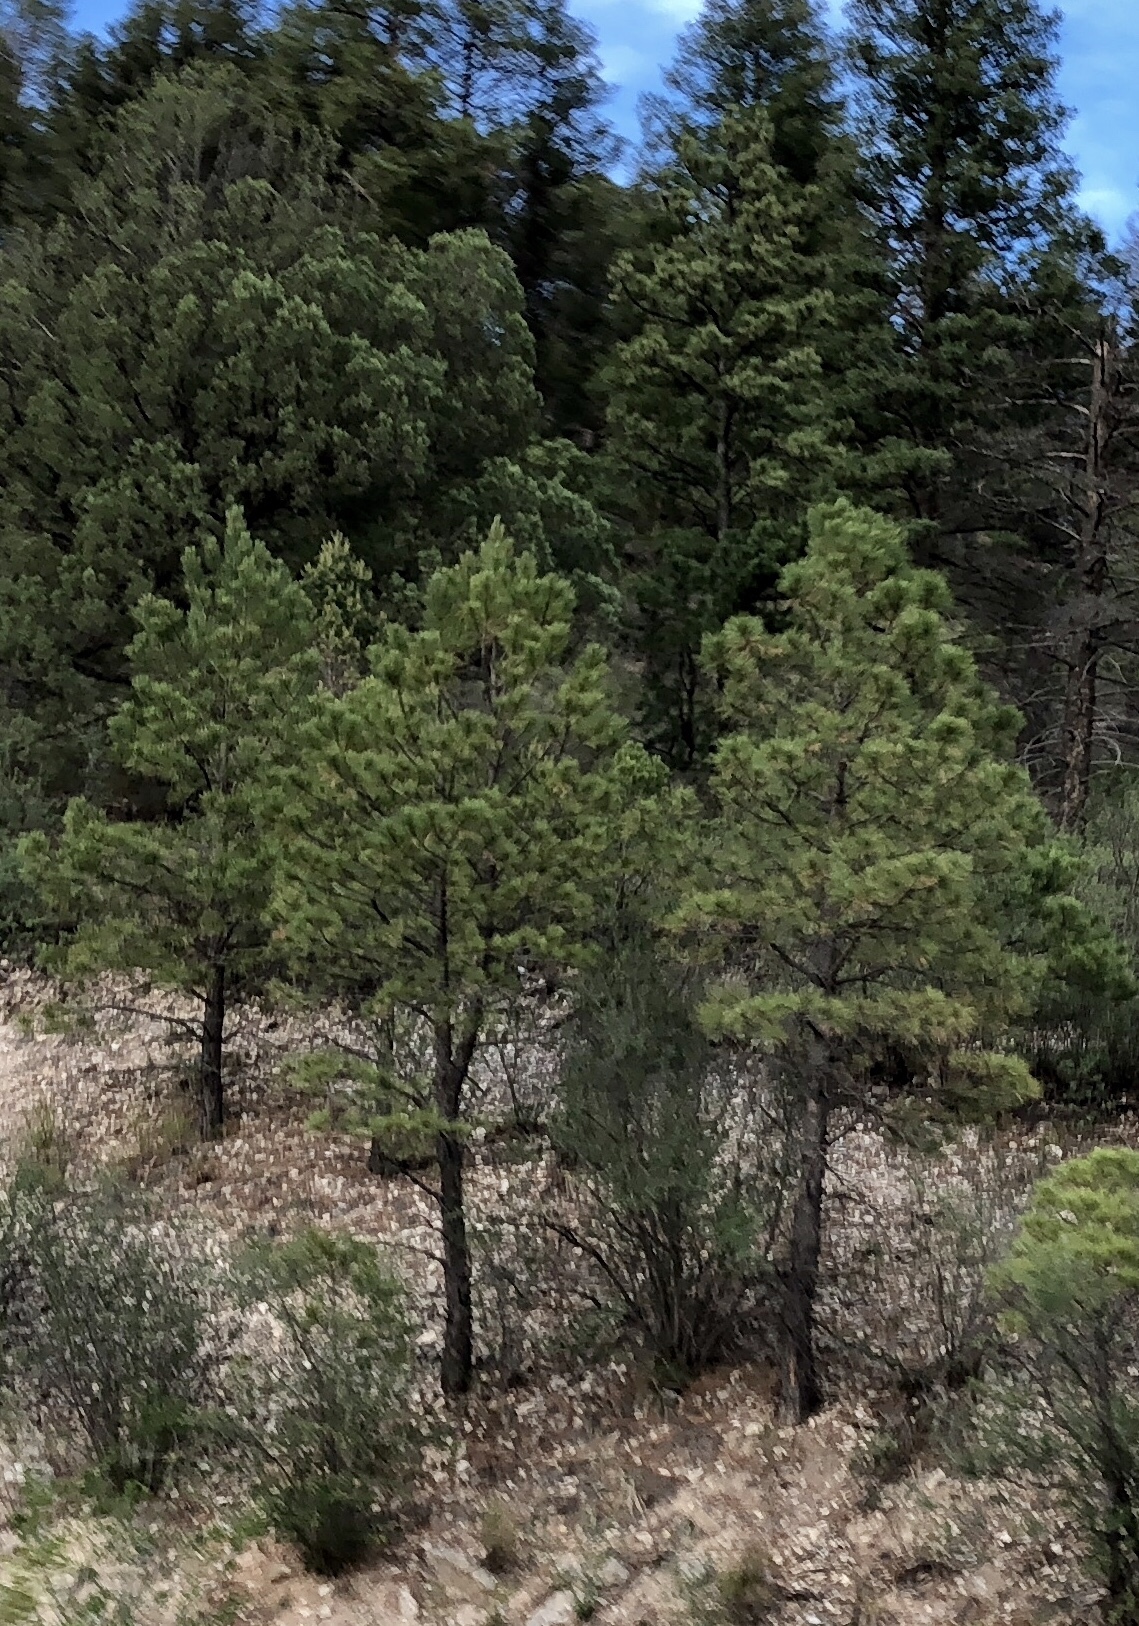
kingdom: Plantae
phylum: Tracheophyta
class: Pinopsida
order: Pinales
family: Pinaceae
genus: Pinus
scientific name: Pinus ponderosa
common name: Western yellow-pine
